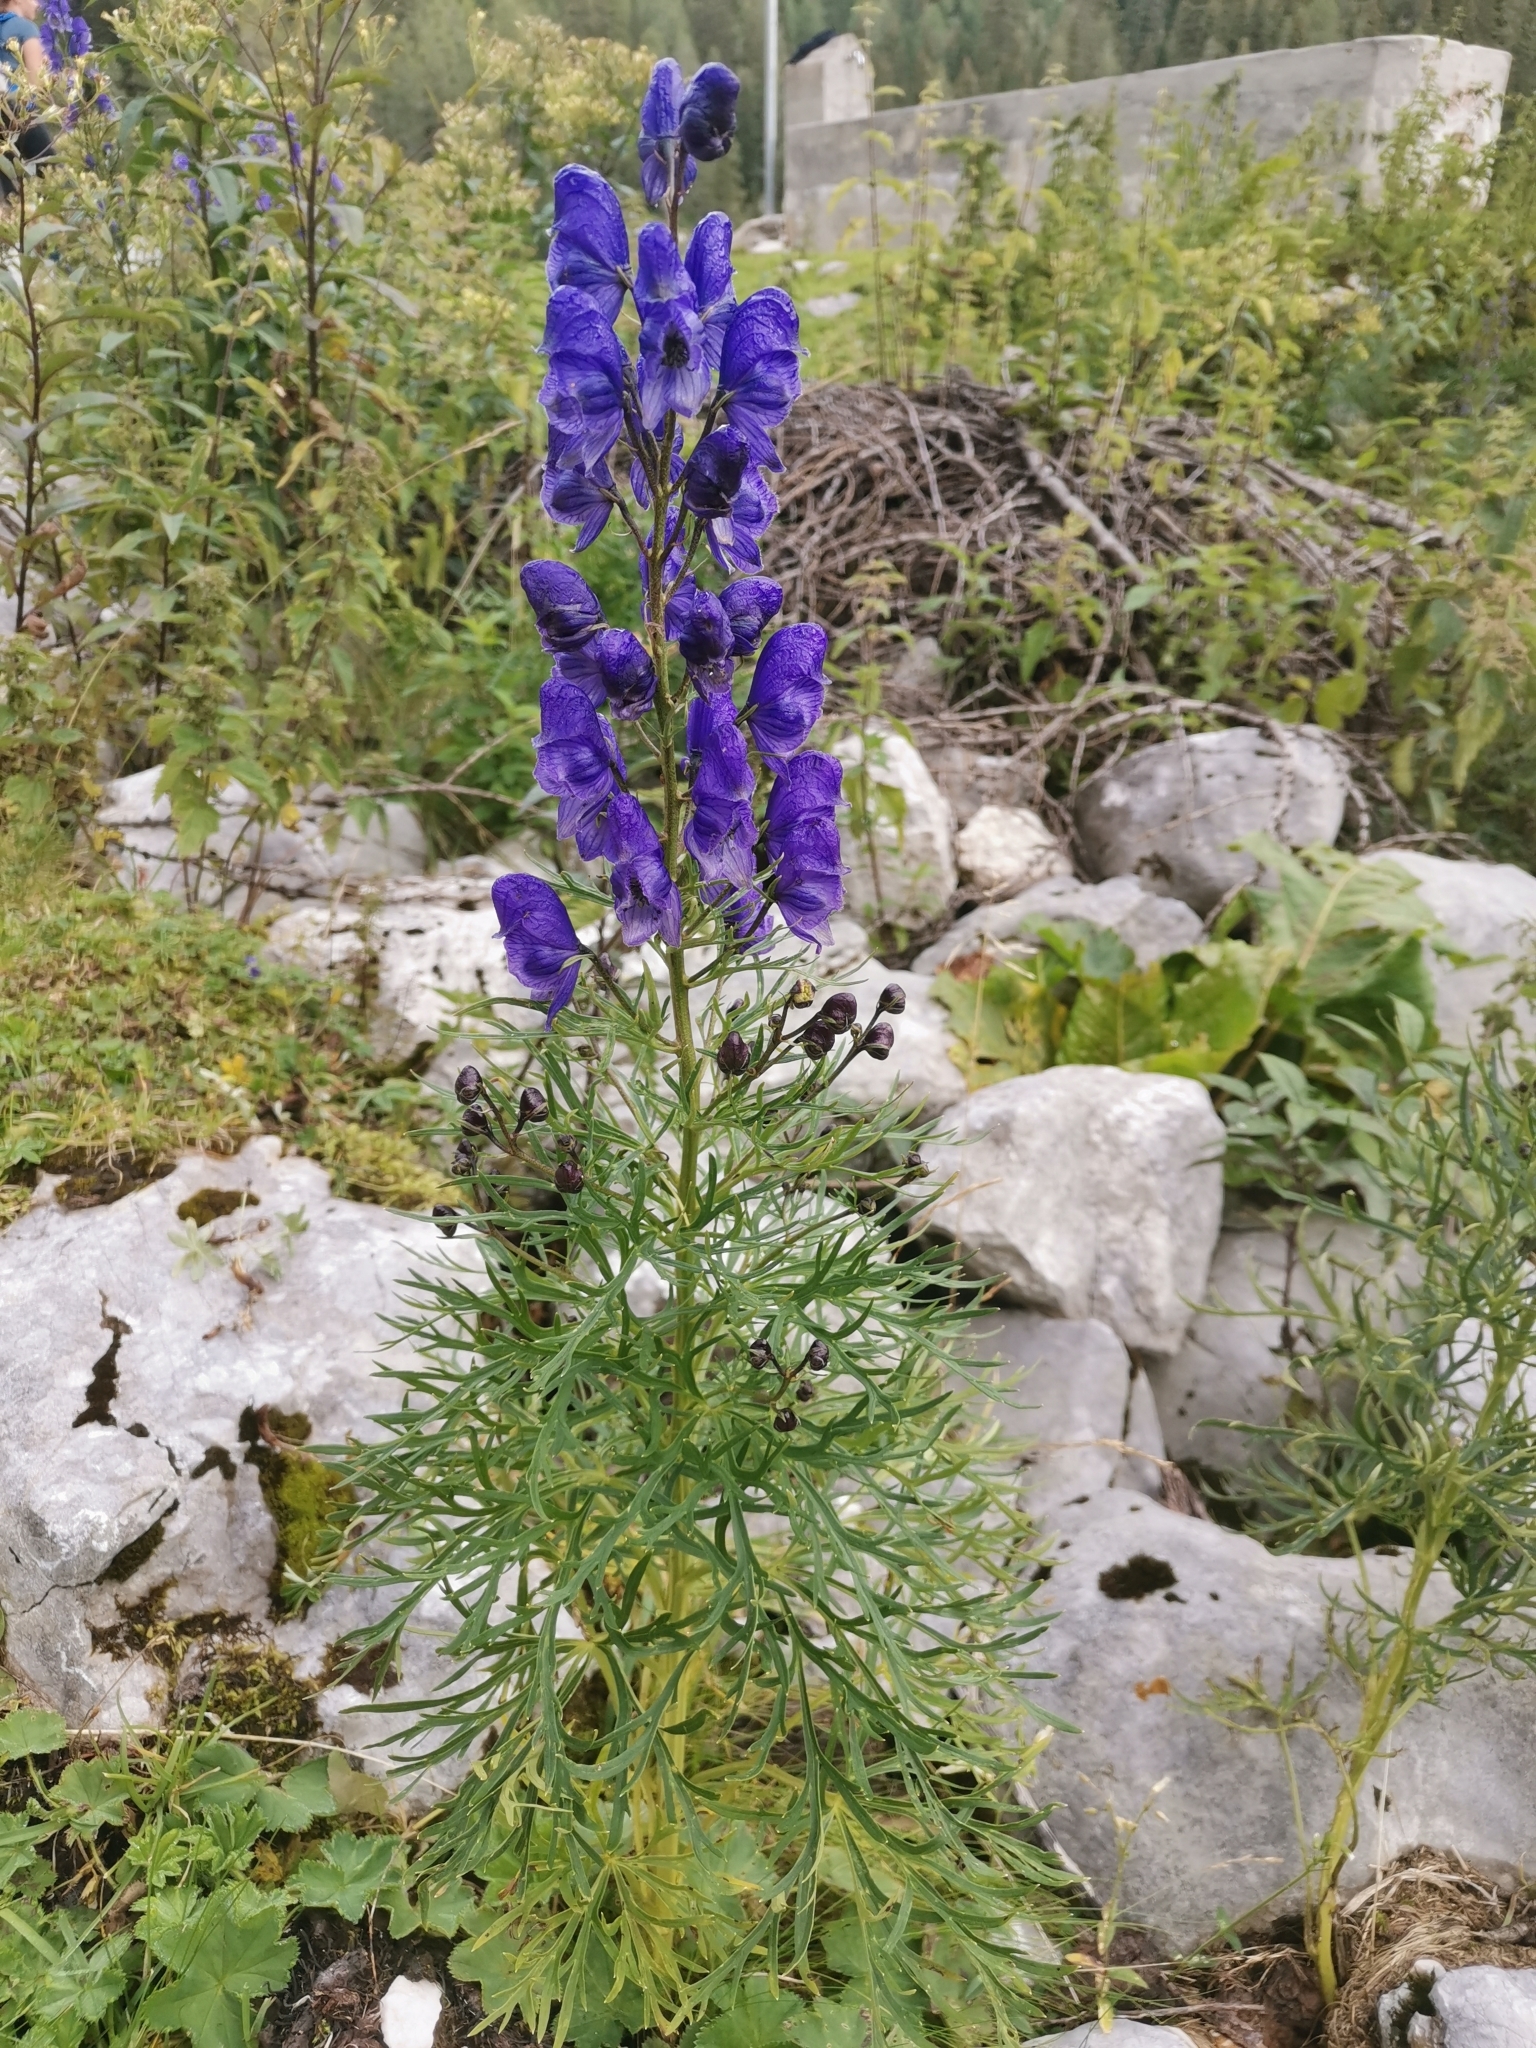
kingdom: Plantae
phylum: Tracheophyta
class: Magnoliopsida
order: Ranunculales
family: Ranunculaceae
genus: Aconitum
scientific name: Aconitum angustifolium
